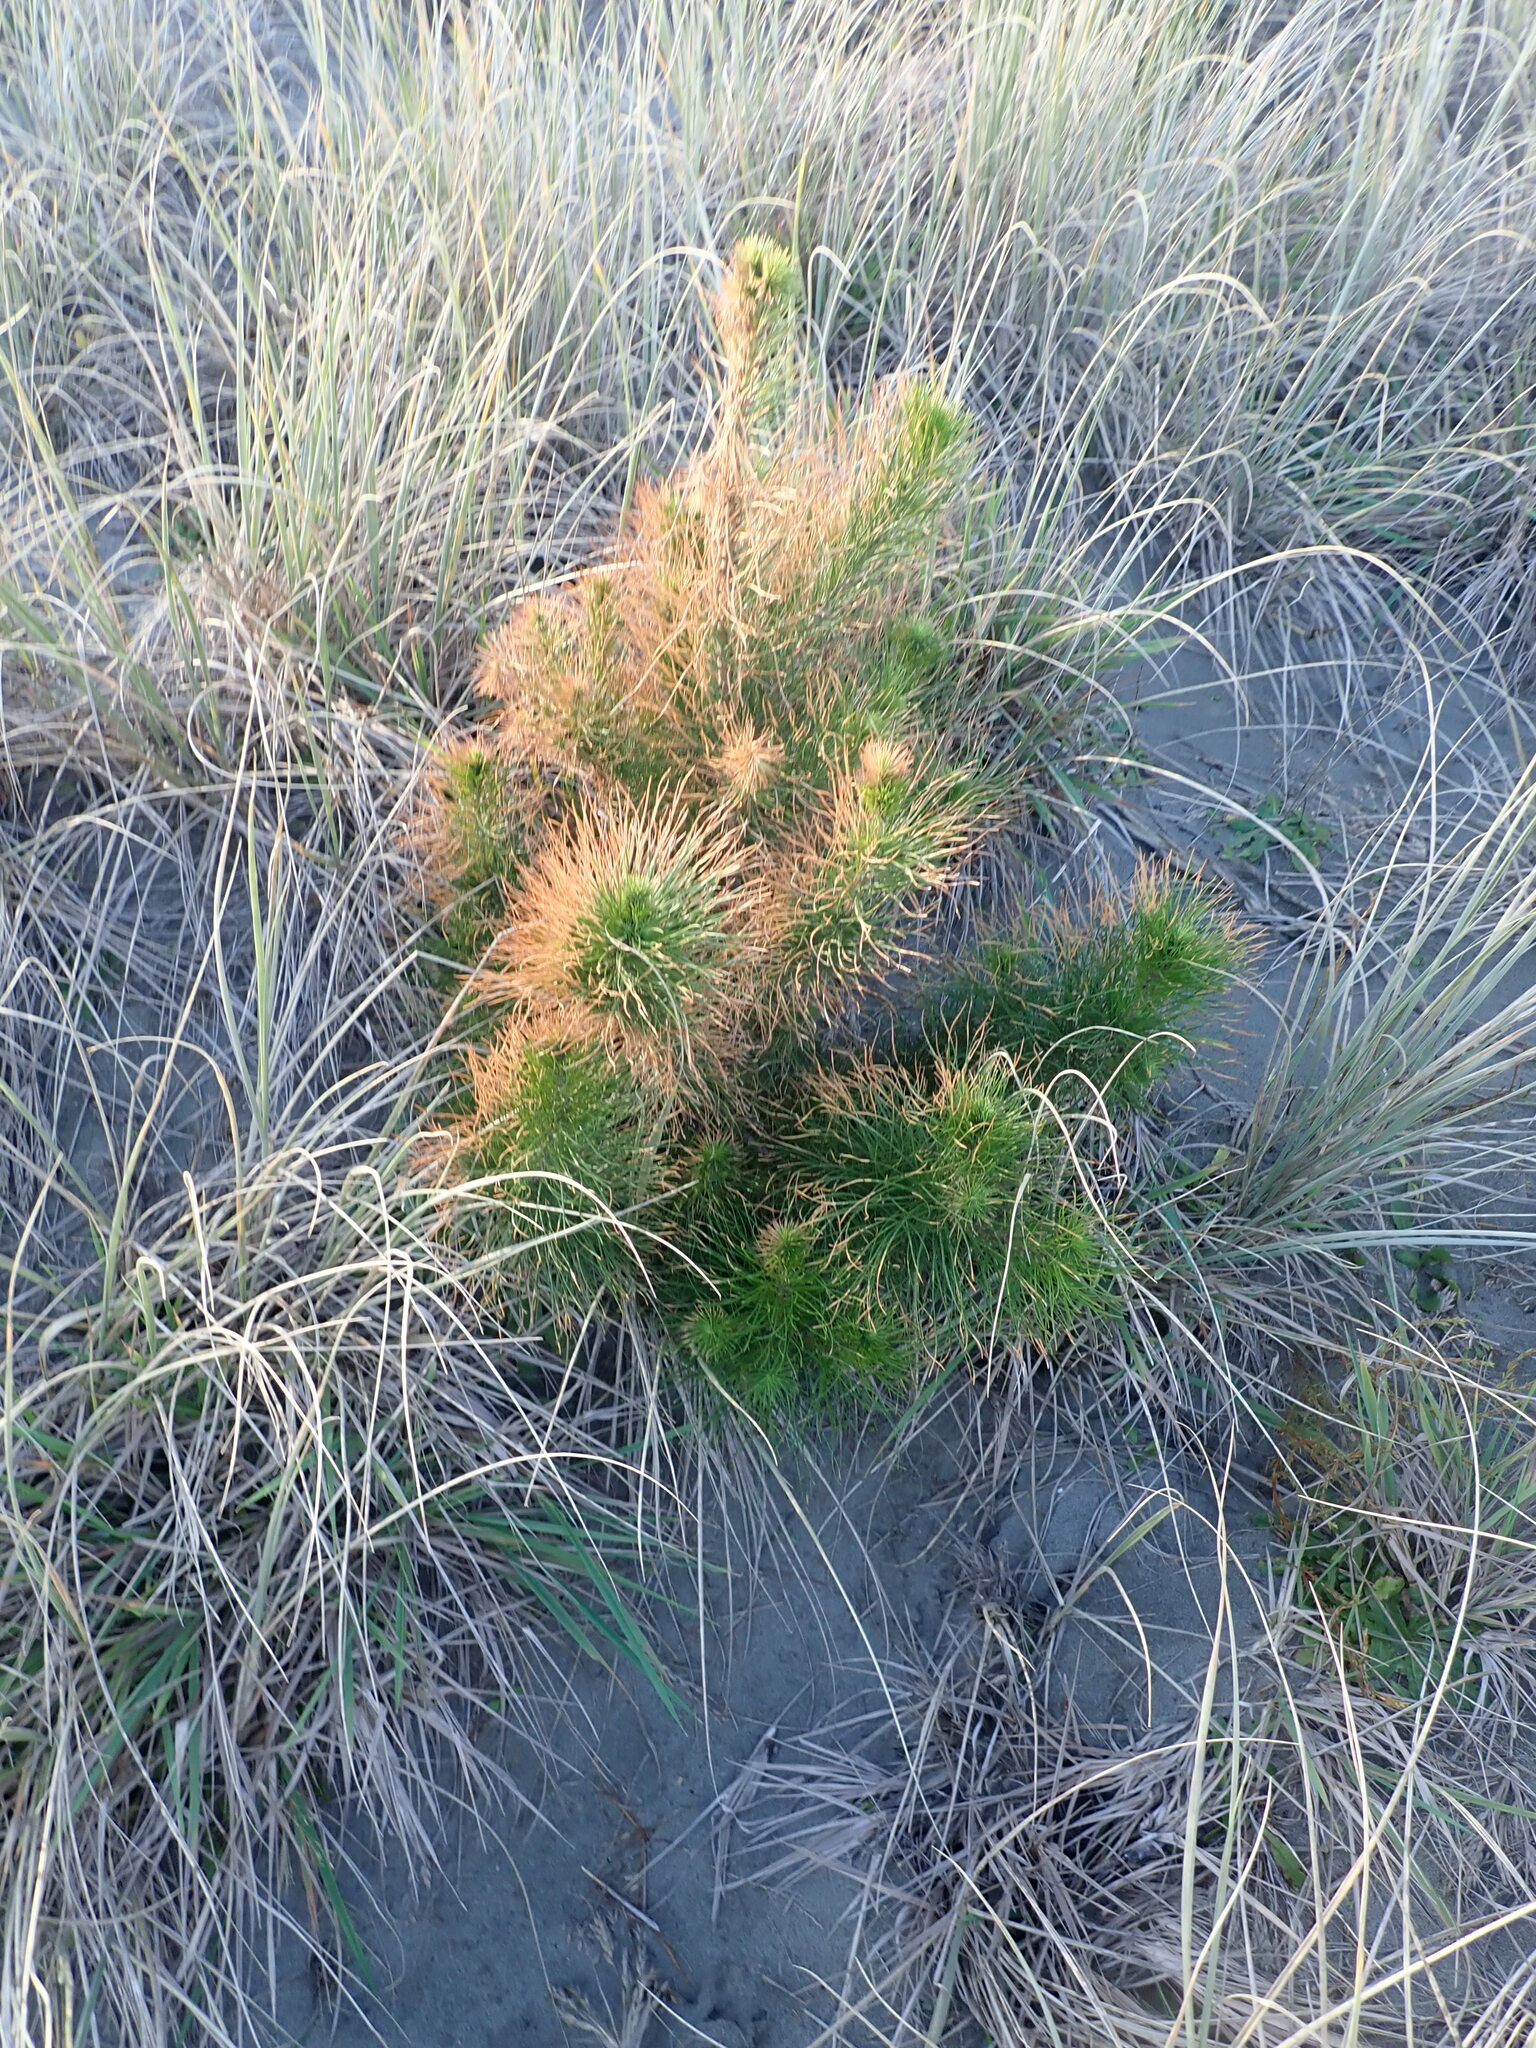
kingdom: Plantae
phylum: Tracheophyta
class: Pinopsida
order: Pinales
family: Pinaceae
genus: Pinus
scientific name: Pinus radiata
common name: Monterey pine
